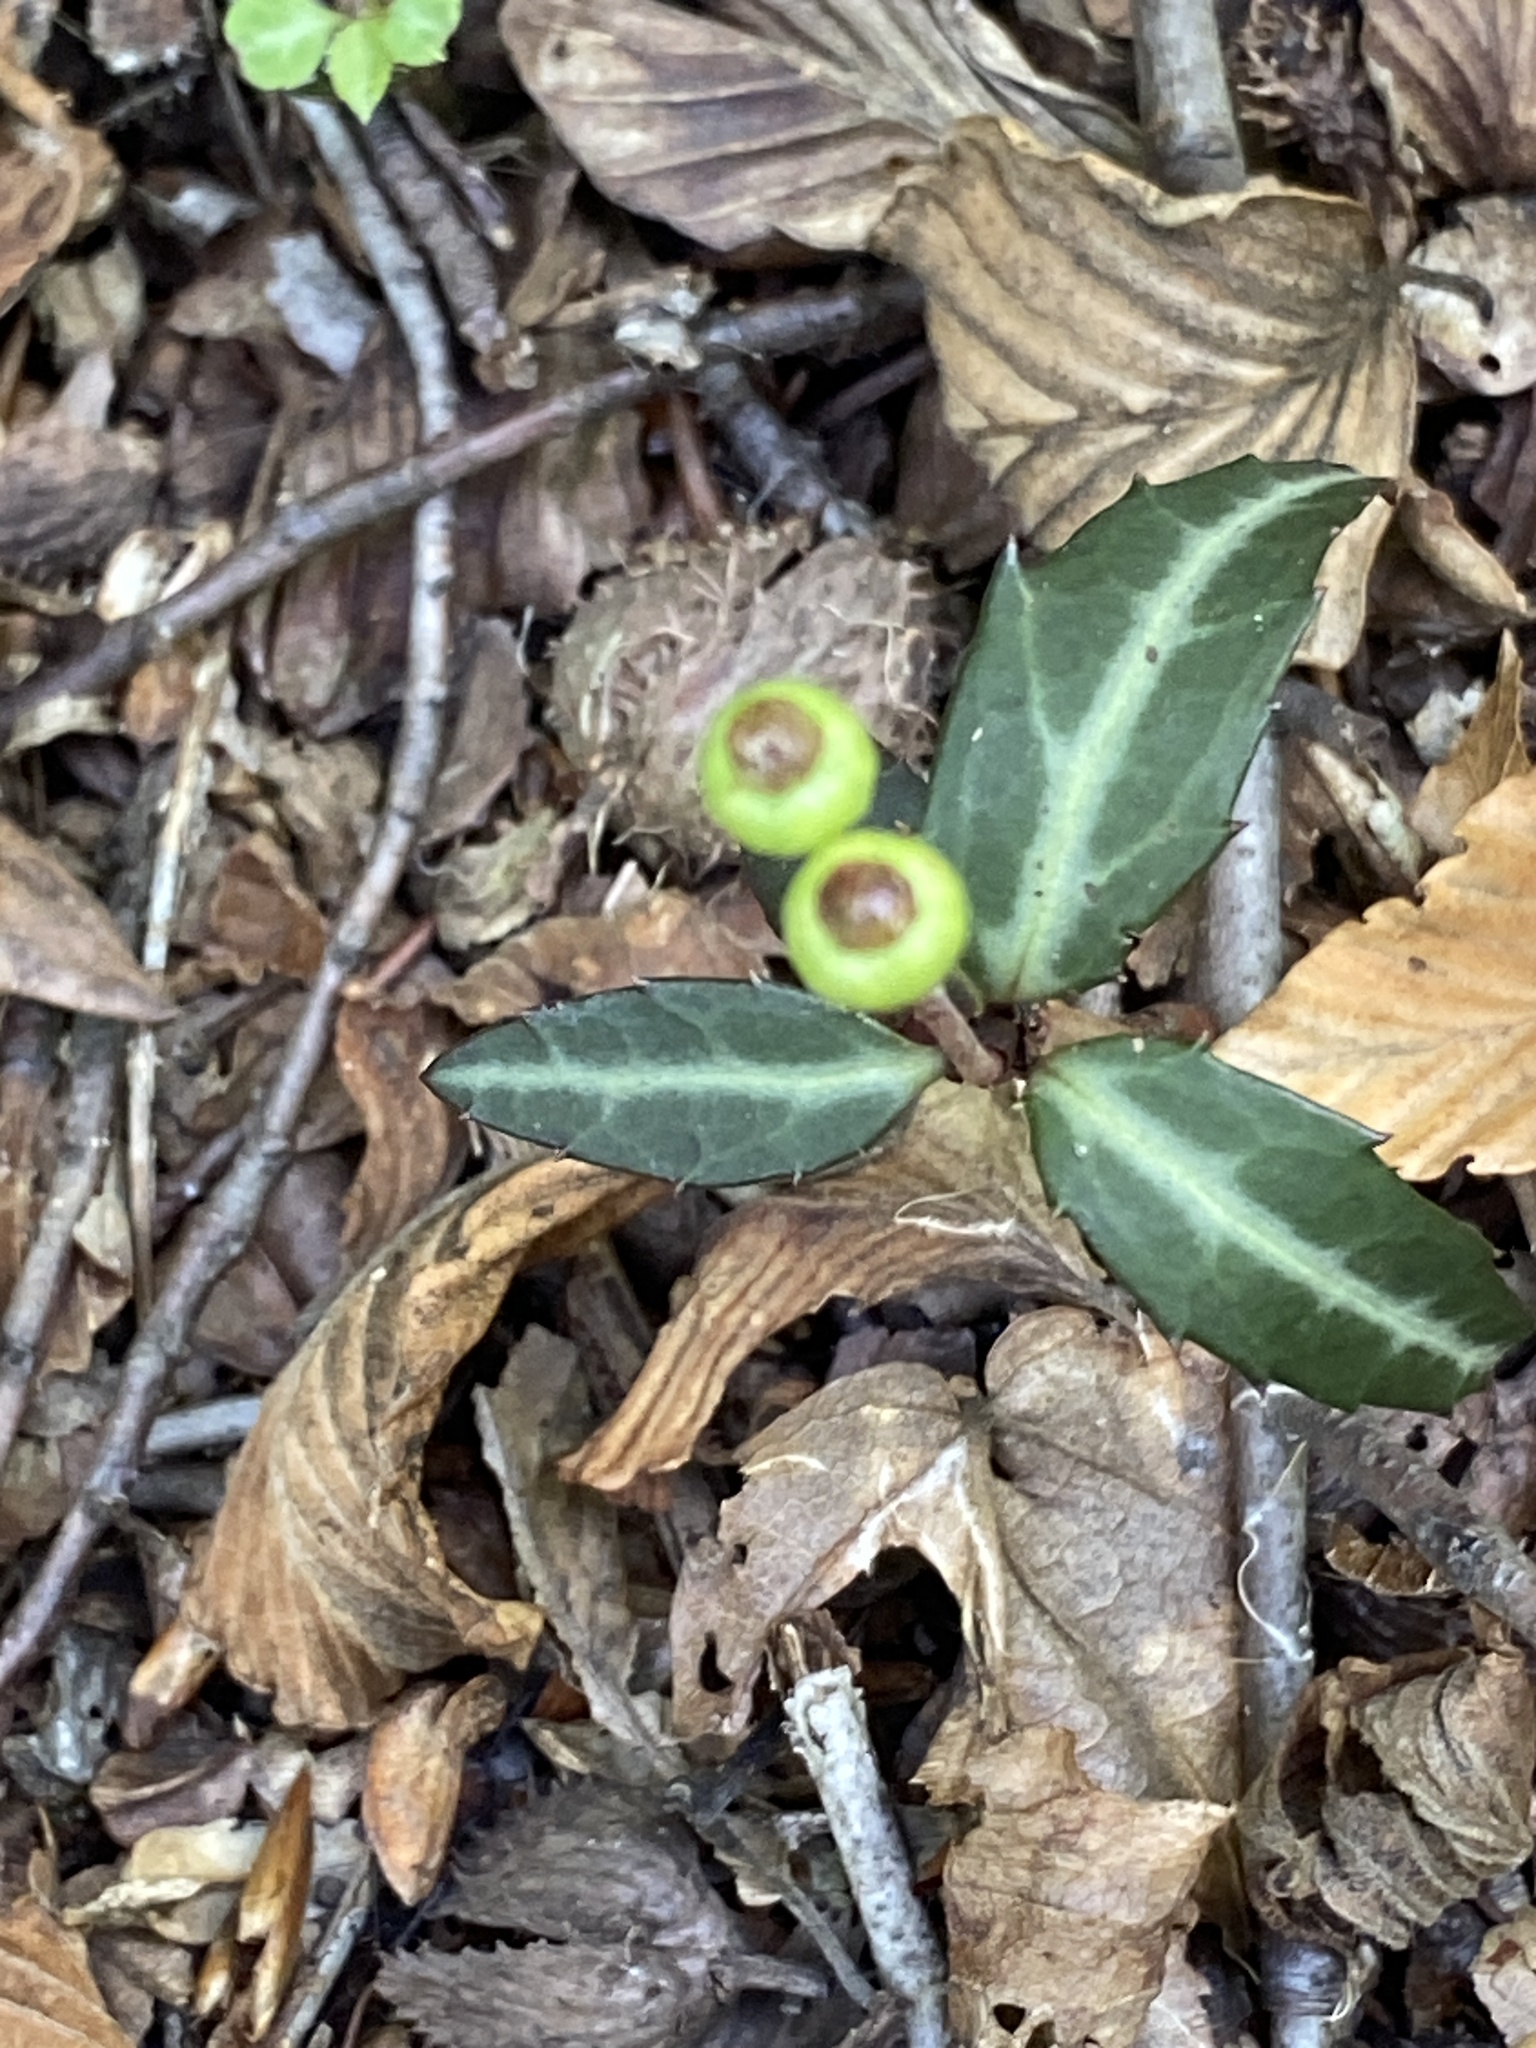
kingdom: Plantae
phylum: Tracheophyta
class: Magnoliopsida
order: Ericales
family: Ericaceae
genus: Chimaphila
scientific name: Chimaphila maculata
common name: Spotted pipsissewa
